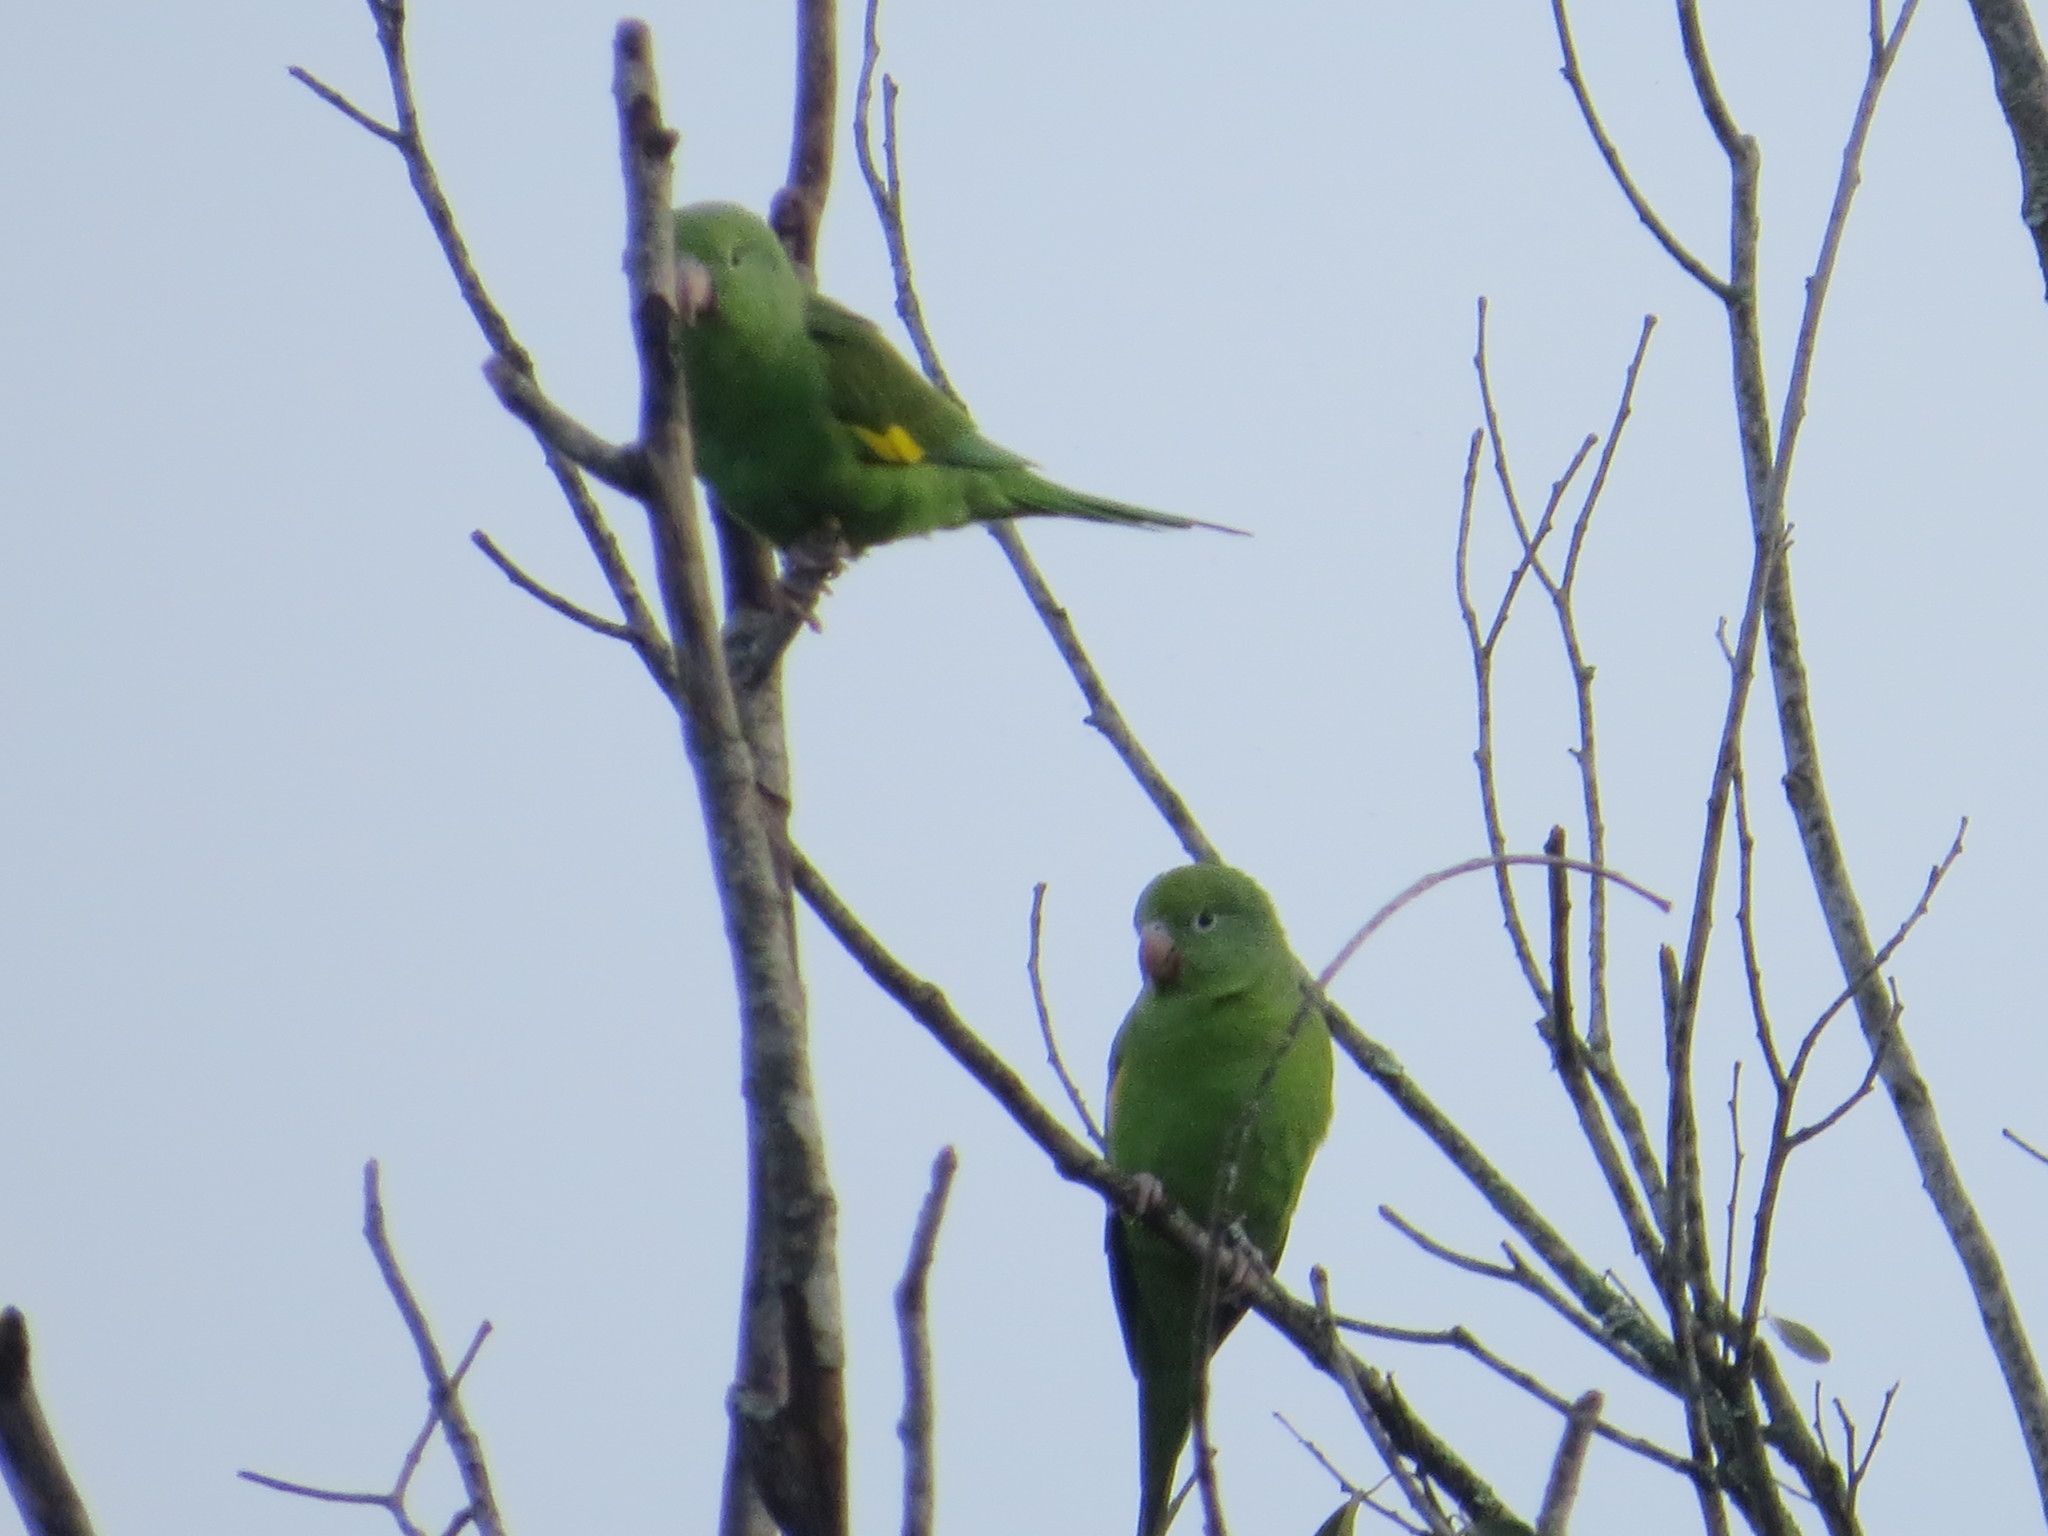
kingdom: Animalia
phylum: Chordata
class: Aves
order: Psittaciformes
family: Psittacidae
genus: Brotogeris
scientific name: Brotogeris chiriri
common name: Yellow-chevroned parakeet
